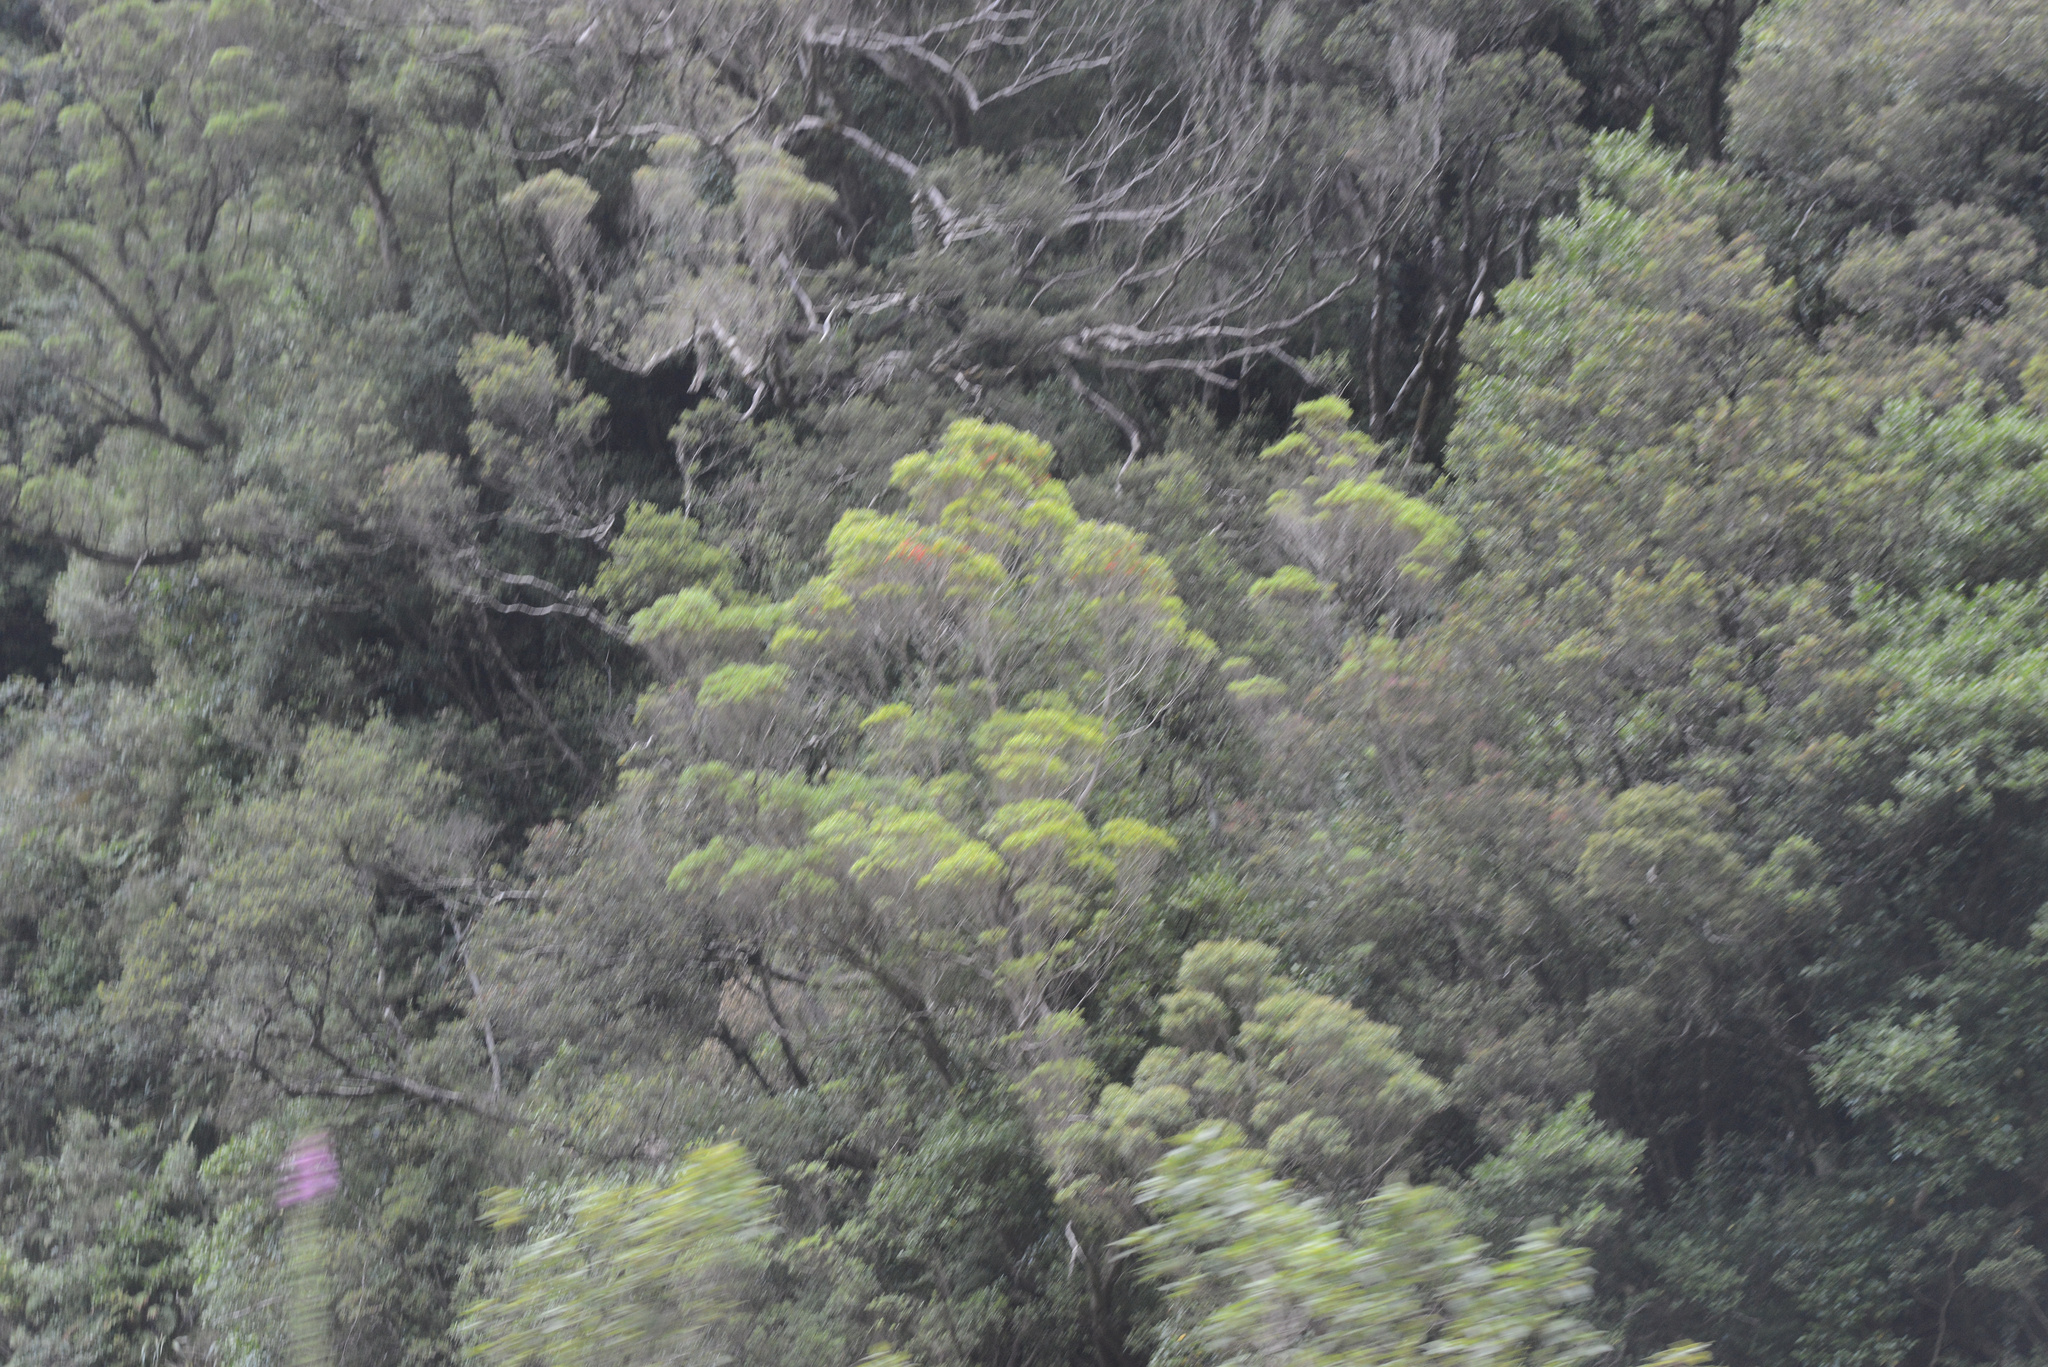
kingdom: Plantae
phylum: Tracheophyta
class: Magnoliopsida
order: Myrtales
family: Myrtaceae
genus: Metrosideros
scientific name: Metrosideros umbellata
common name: Southern rata
